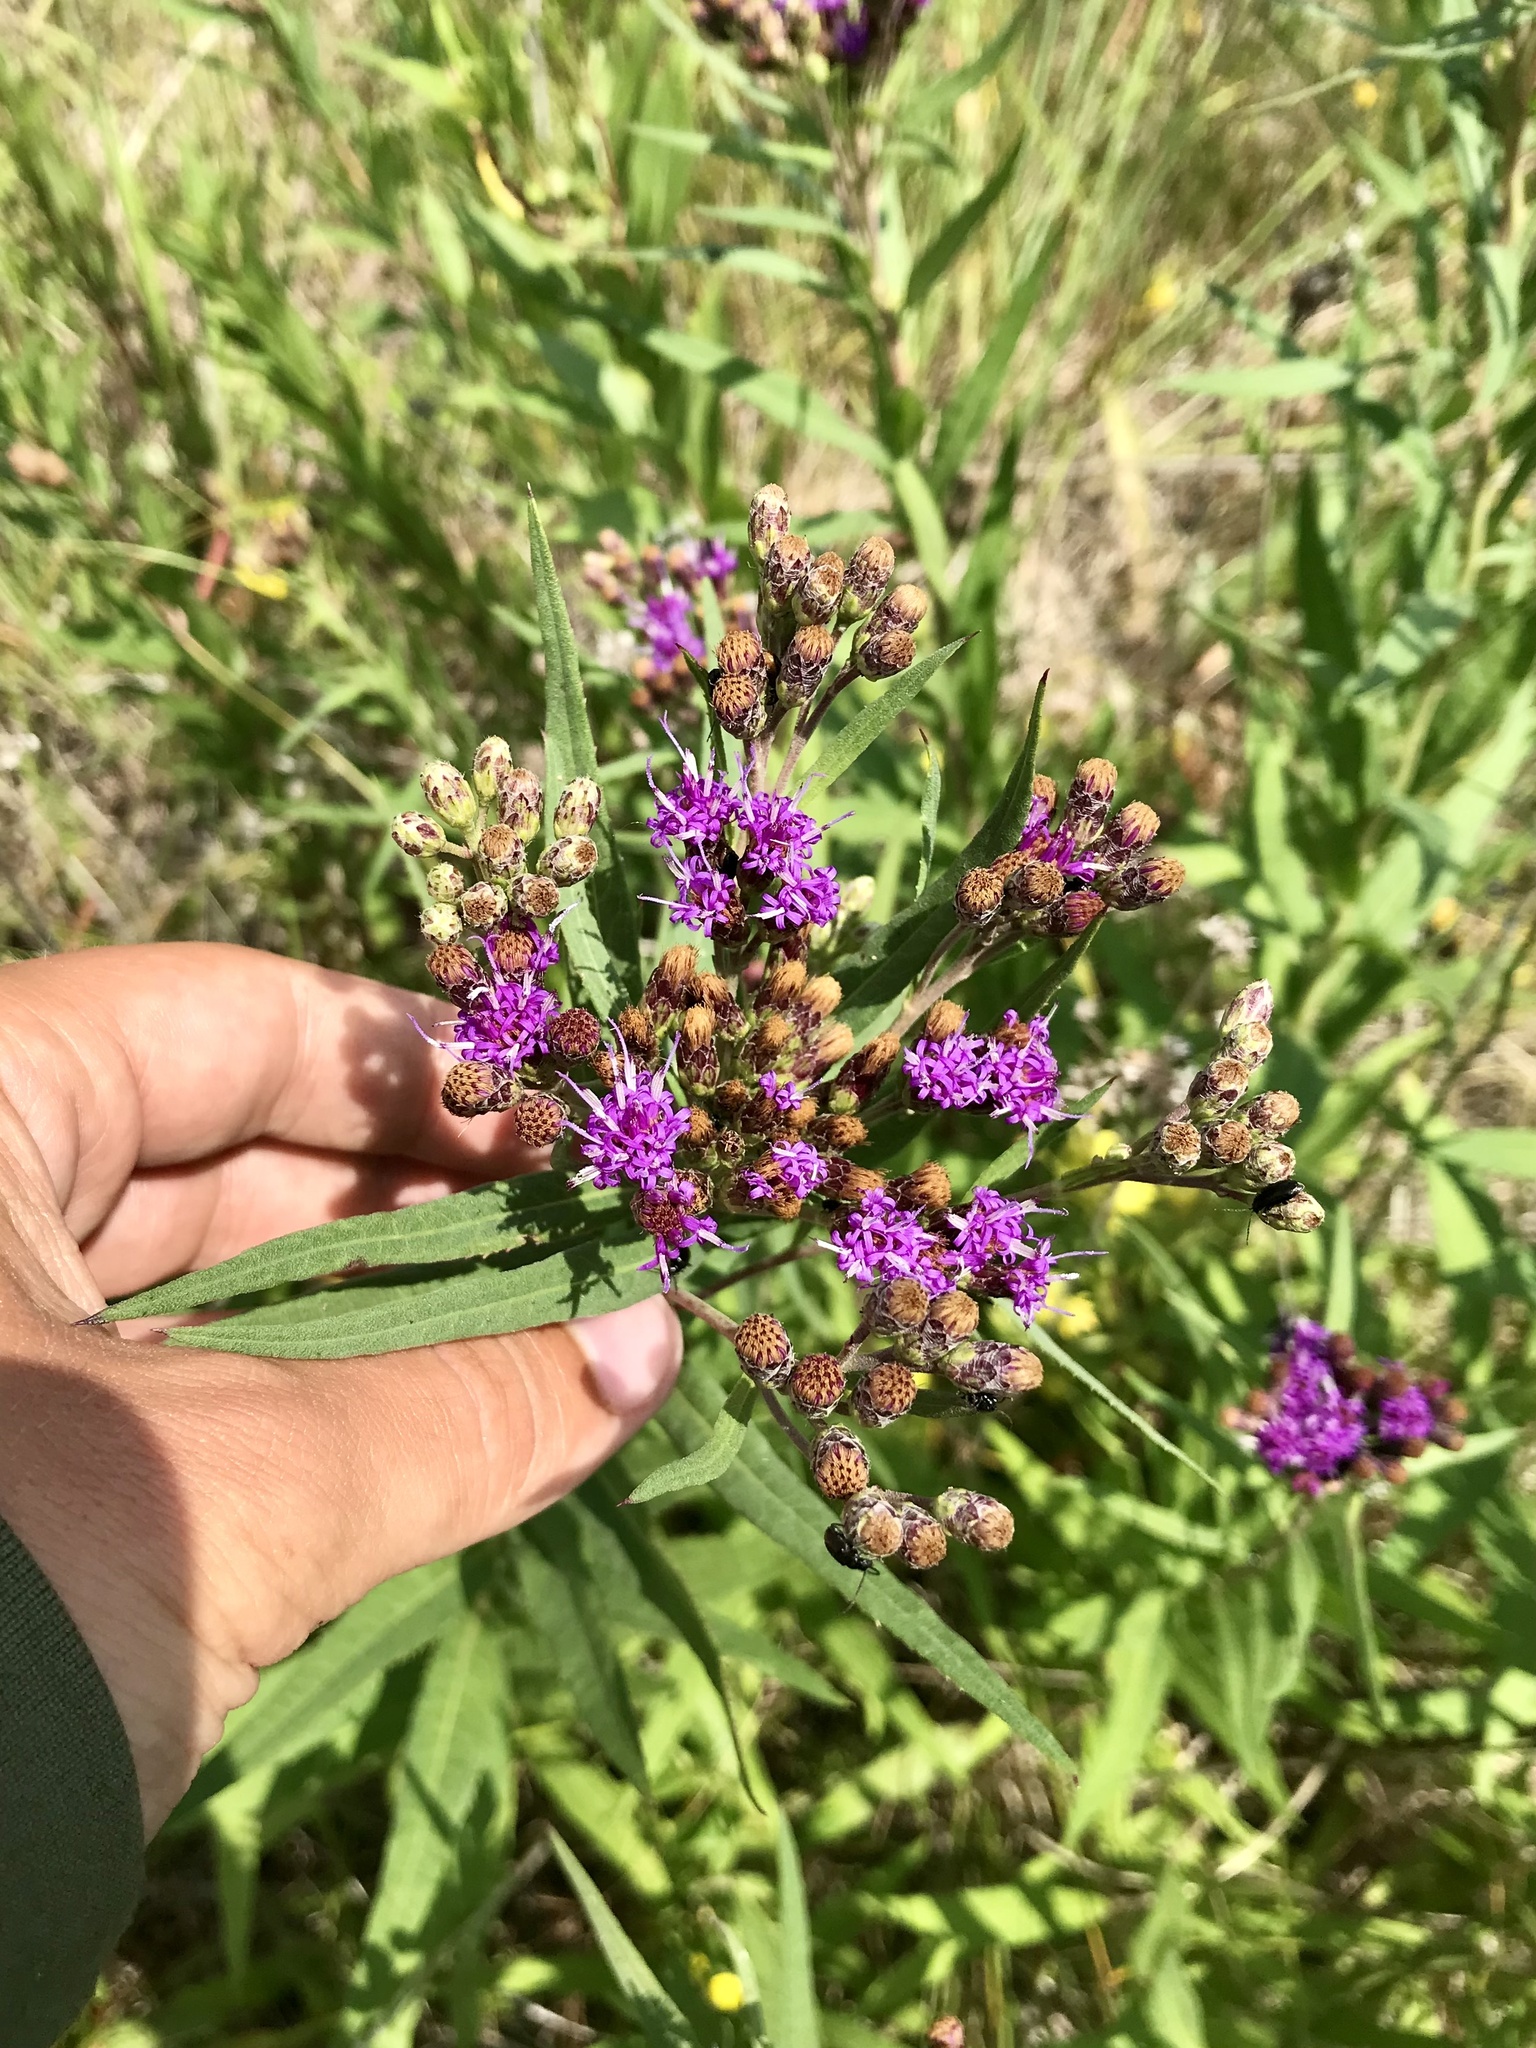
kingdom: Plantae
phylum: Tracheophyta
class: Magnoliopsida
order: Asterales
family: Asteraceae
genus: Vernonia
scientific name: Vernonia fasciculata
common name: Fascicled ironweed
